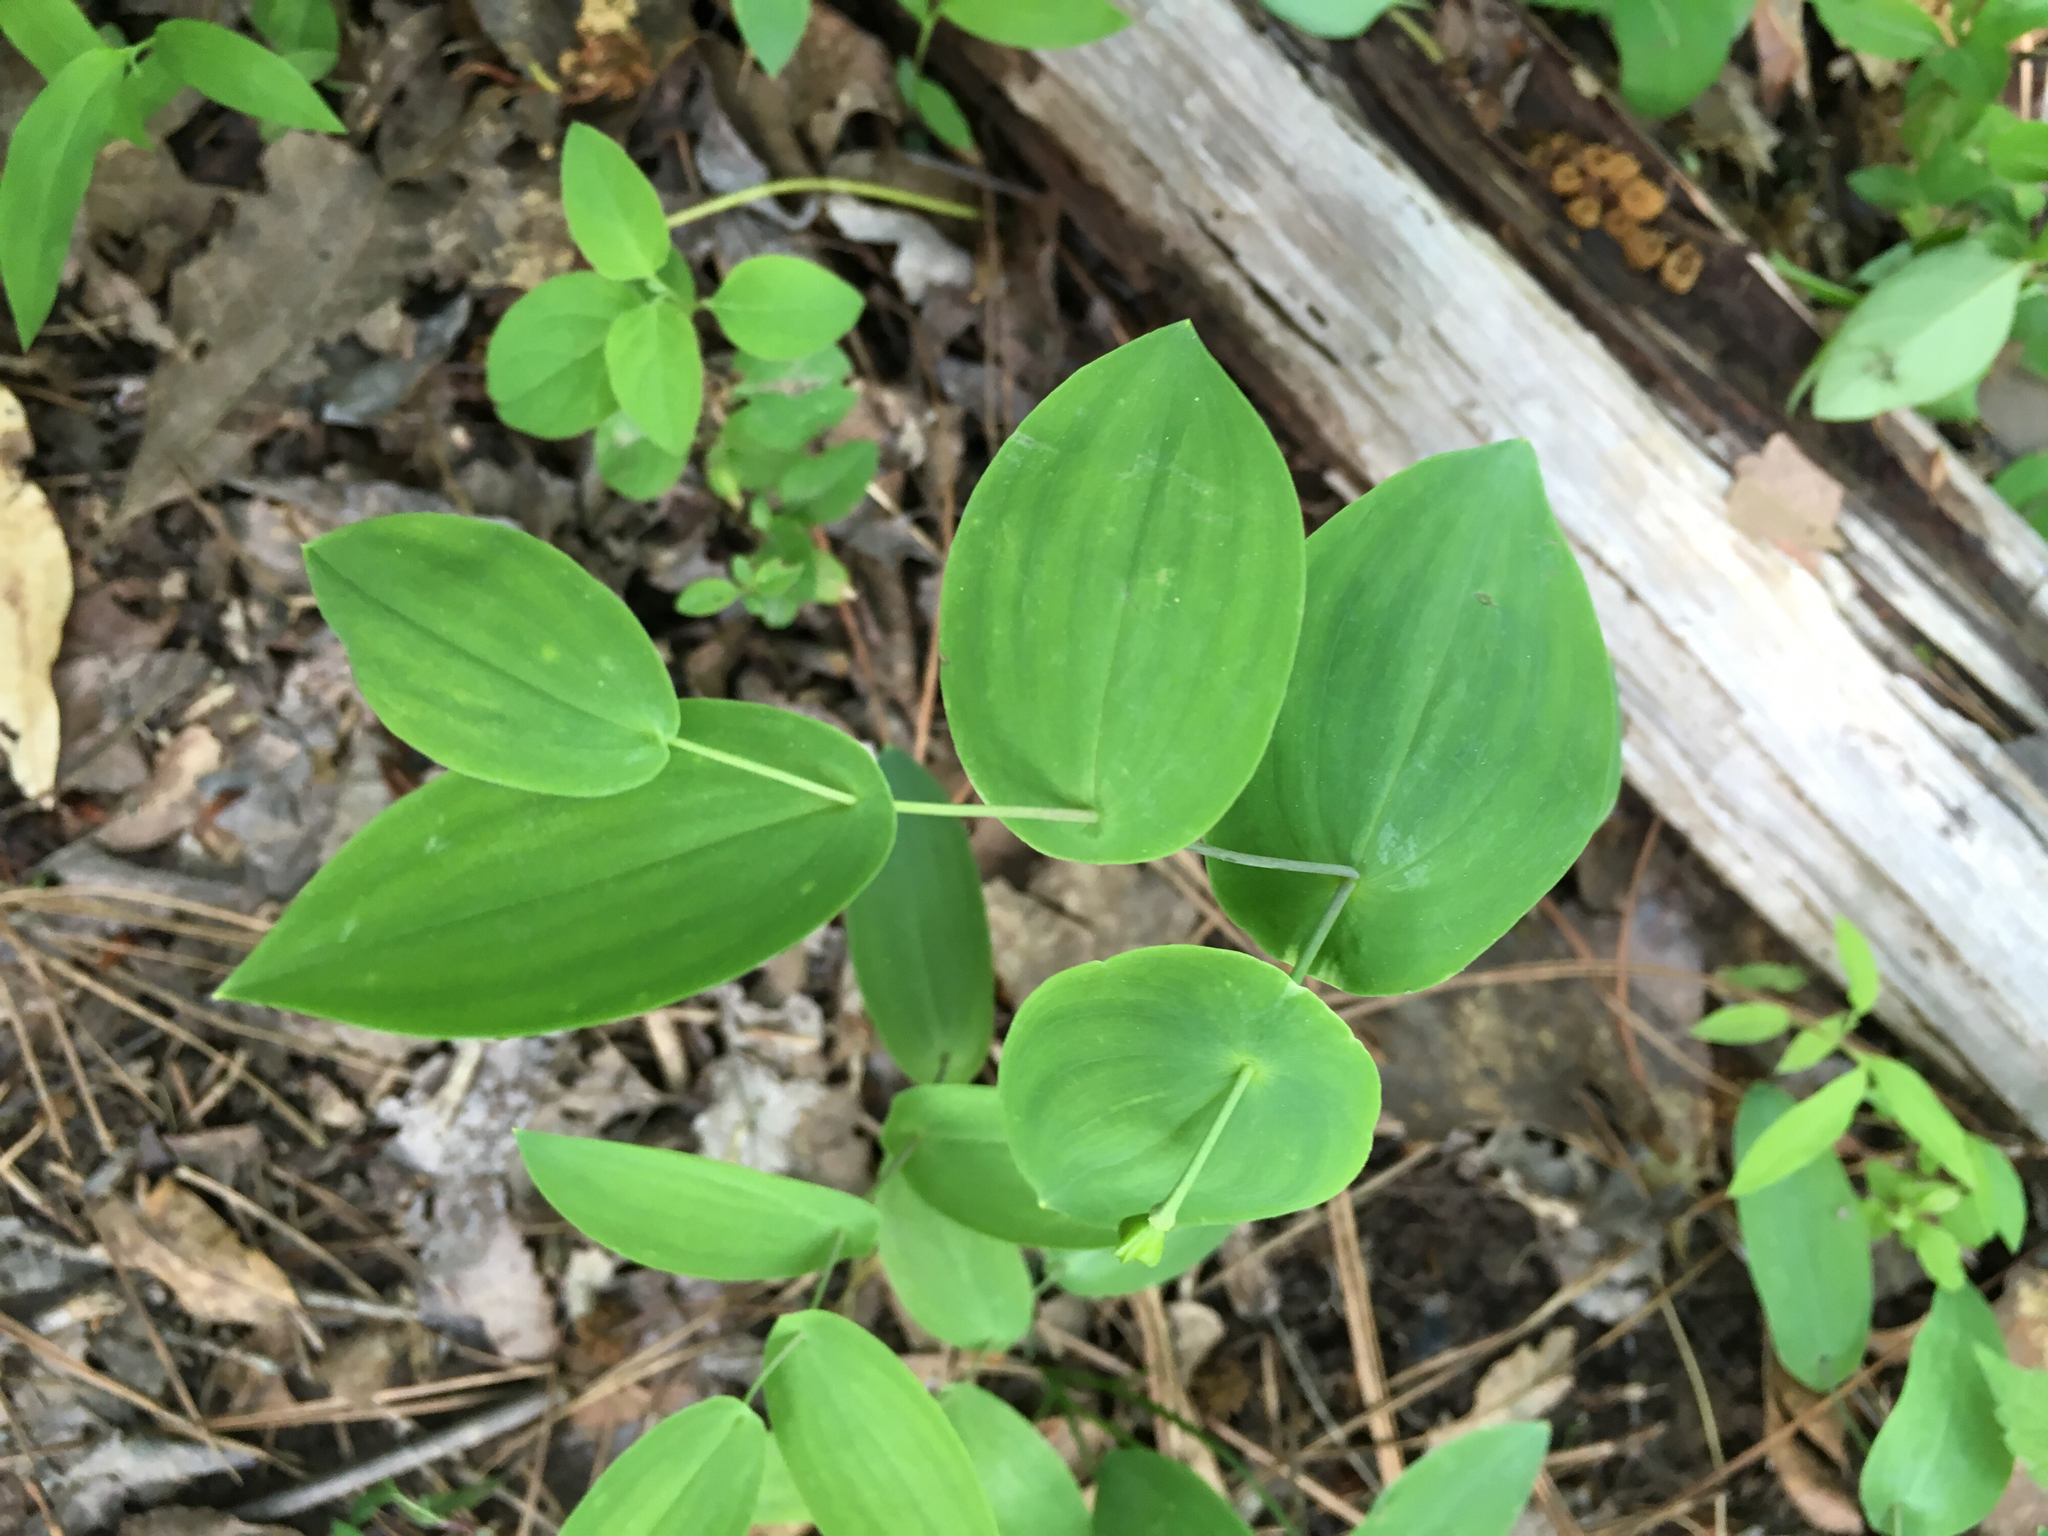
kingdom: Plantae
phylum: Tracheophyta
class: Liliopsida
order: Liliales
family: Colchicaceae
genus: Uvularia
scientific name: Uvularia perfoliata
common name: Perfoliate bellwort
